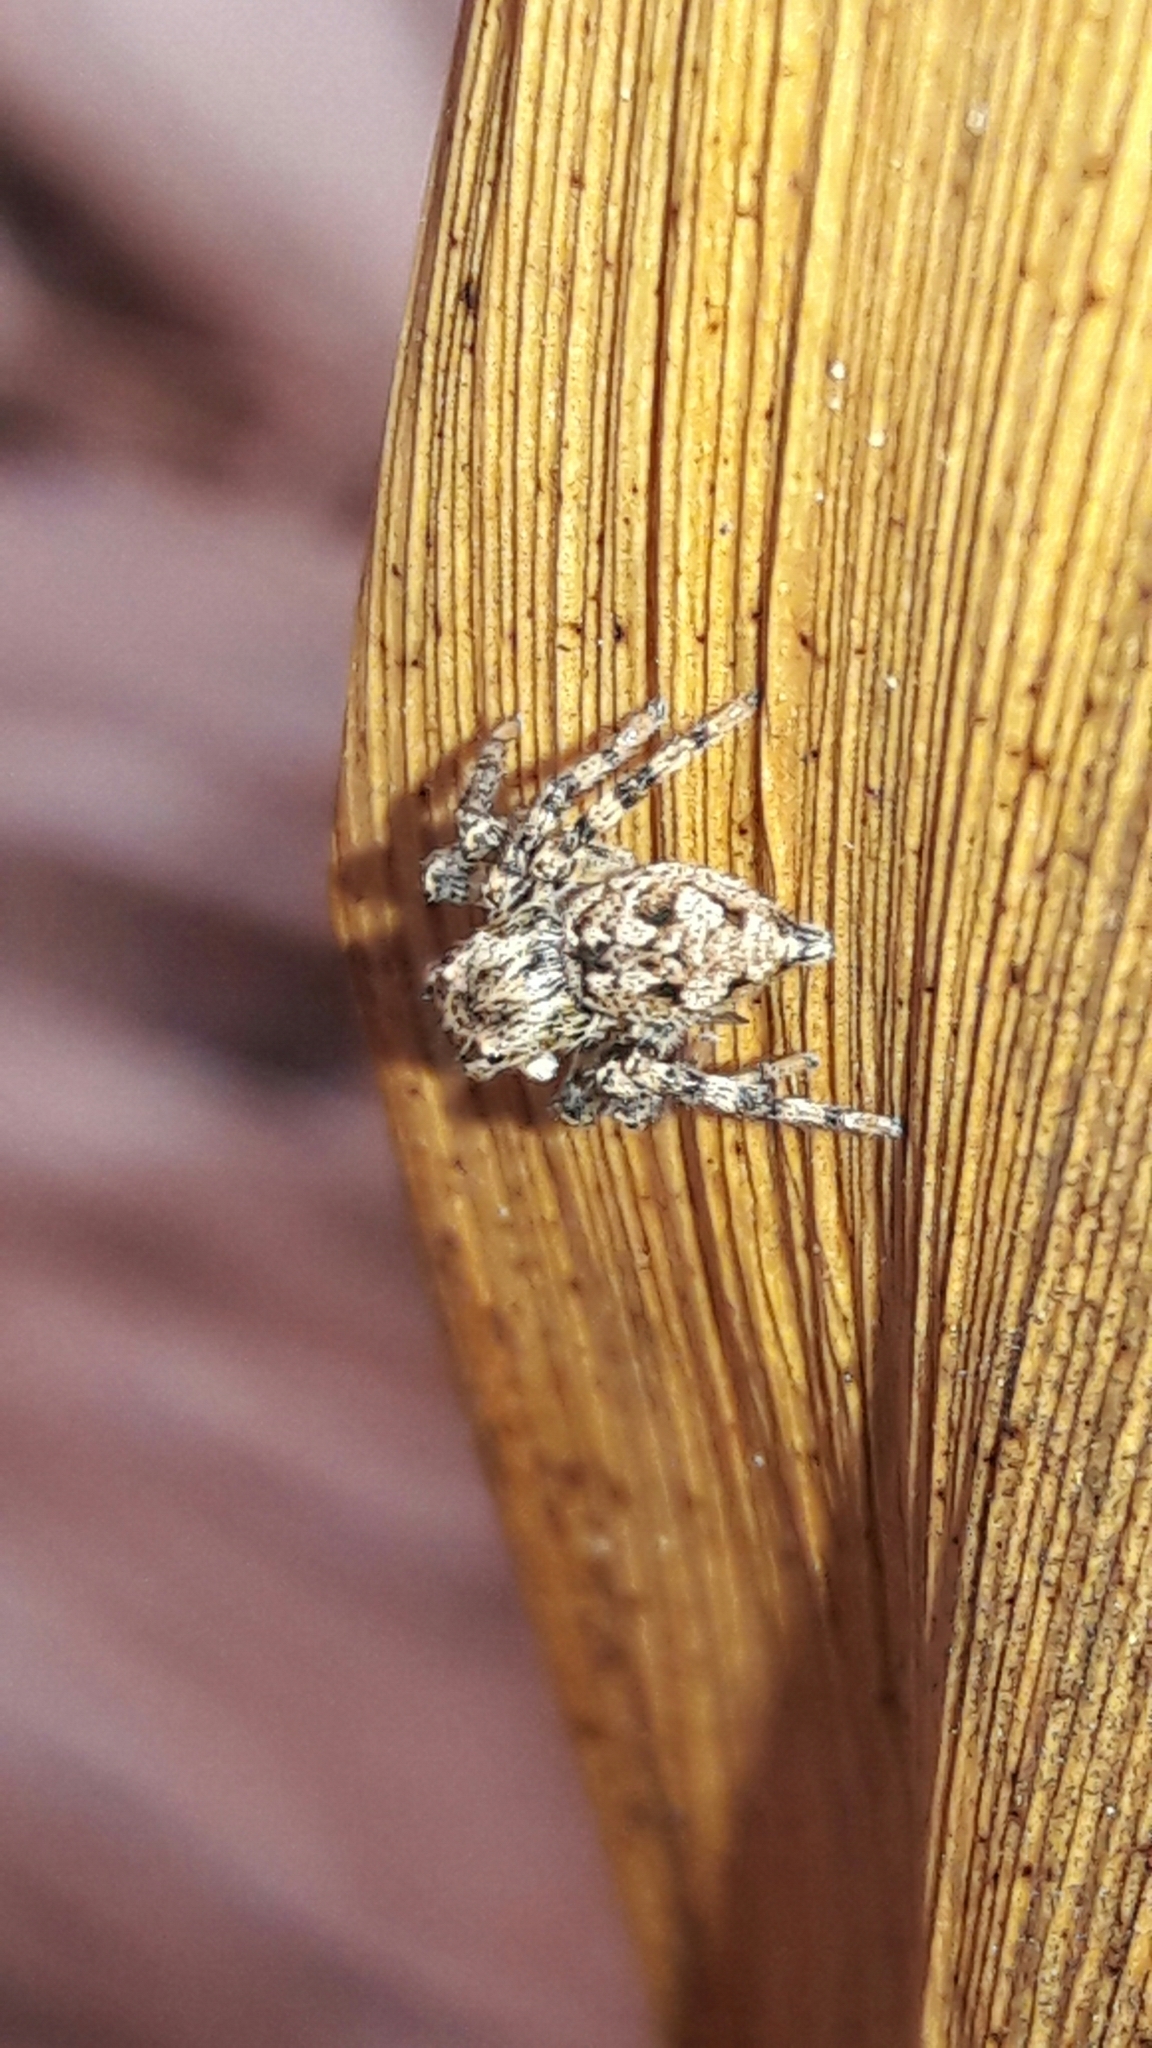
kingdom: Animalia
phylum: Arthropoda
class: Arachnida
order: Araneae
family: Salticidae
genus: Sumampattus
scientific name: Sumampattus quinqueradiatus
